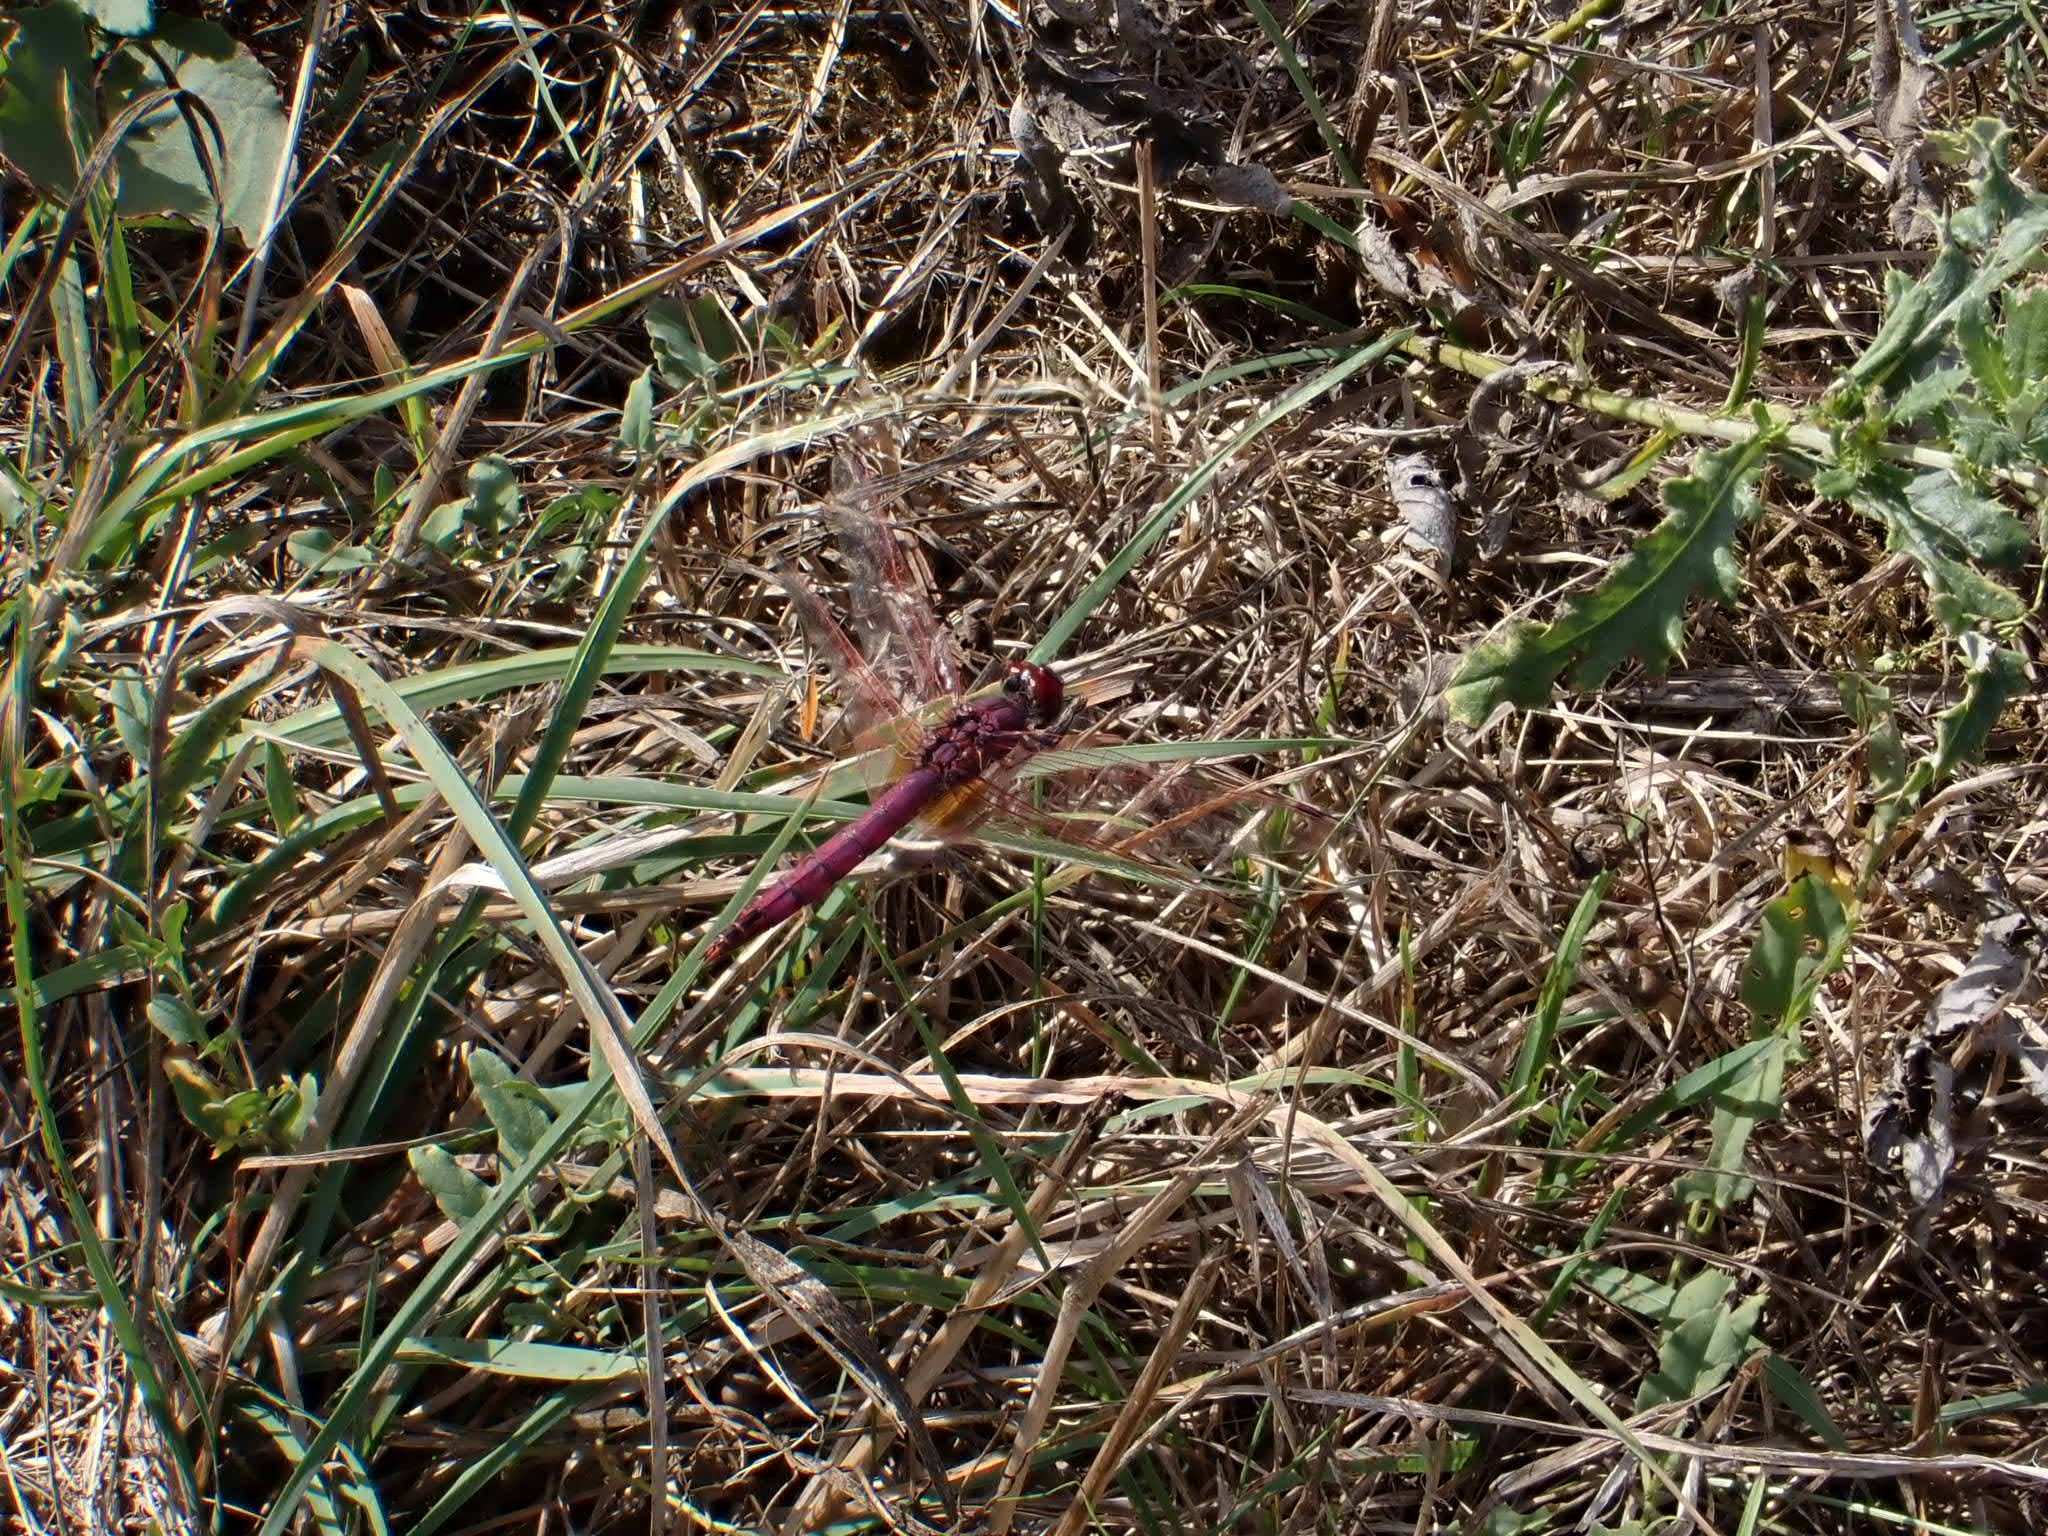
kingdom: Animalia
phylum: Arthropoda
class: Insecta
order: Odonata
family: Libellulidae
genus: Trithemis
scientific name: Trithemis annulata
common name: Violet dropwing
